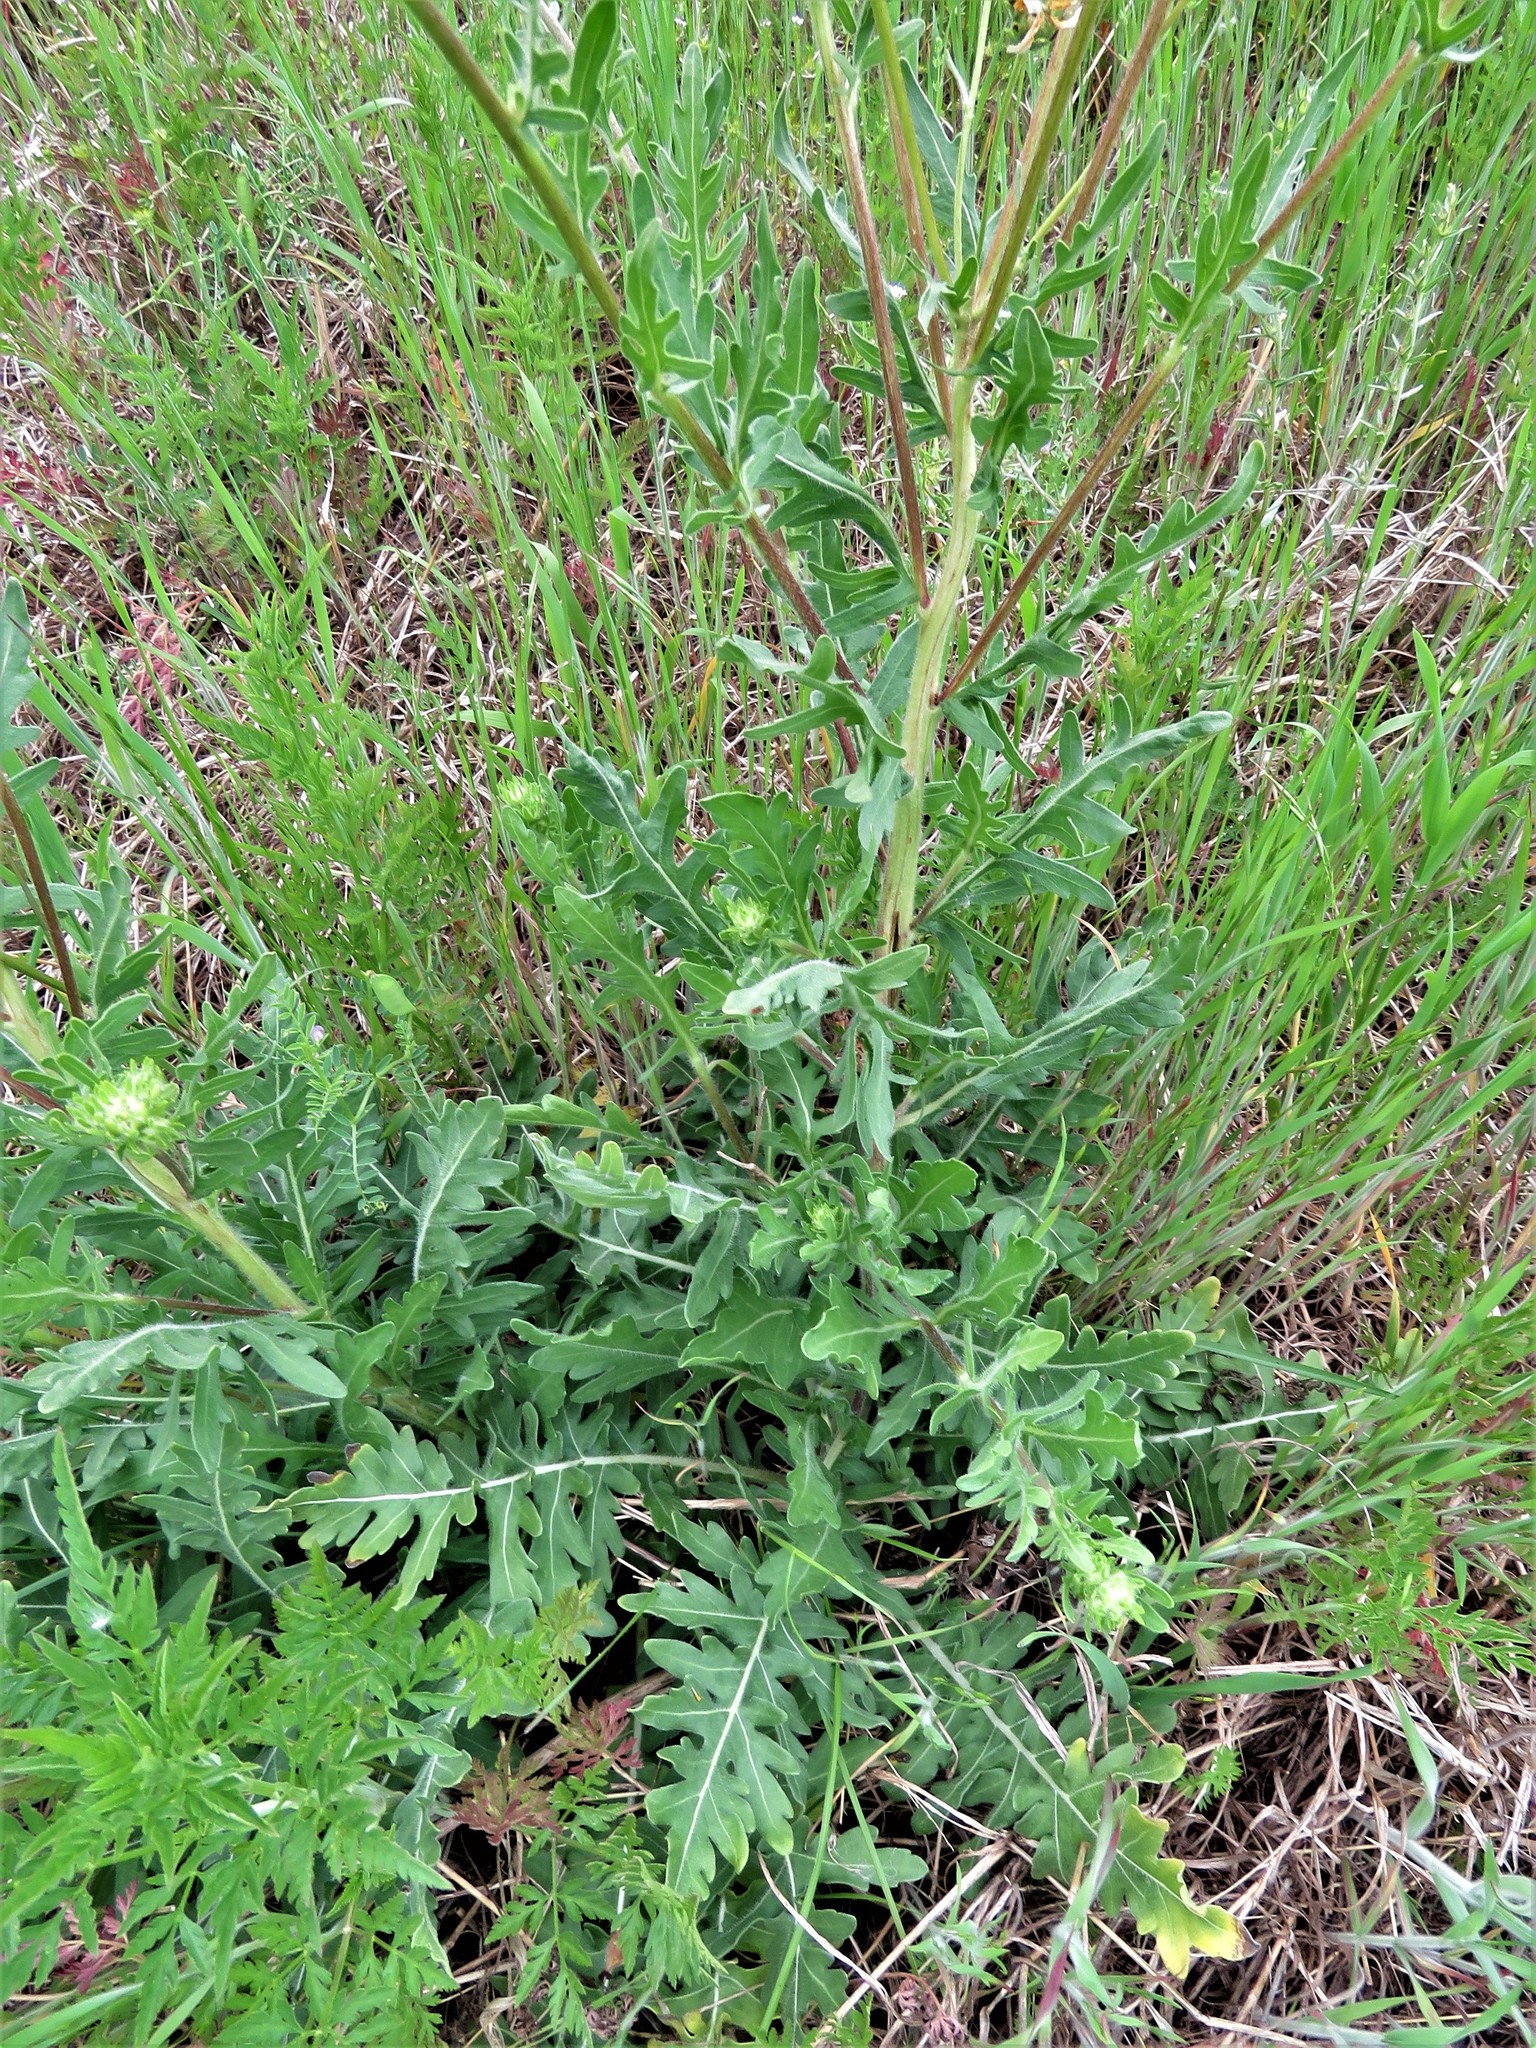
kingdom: Plantae
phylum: Tracheophyta
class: Magnoliopsida
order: Asterales
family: Asteraceae
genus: Engelmannia
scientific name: Engelmannia peristenia
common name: Engelmann's daisy
